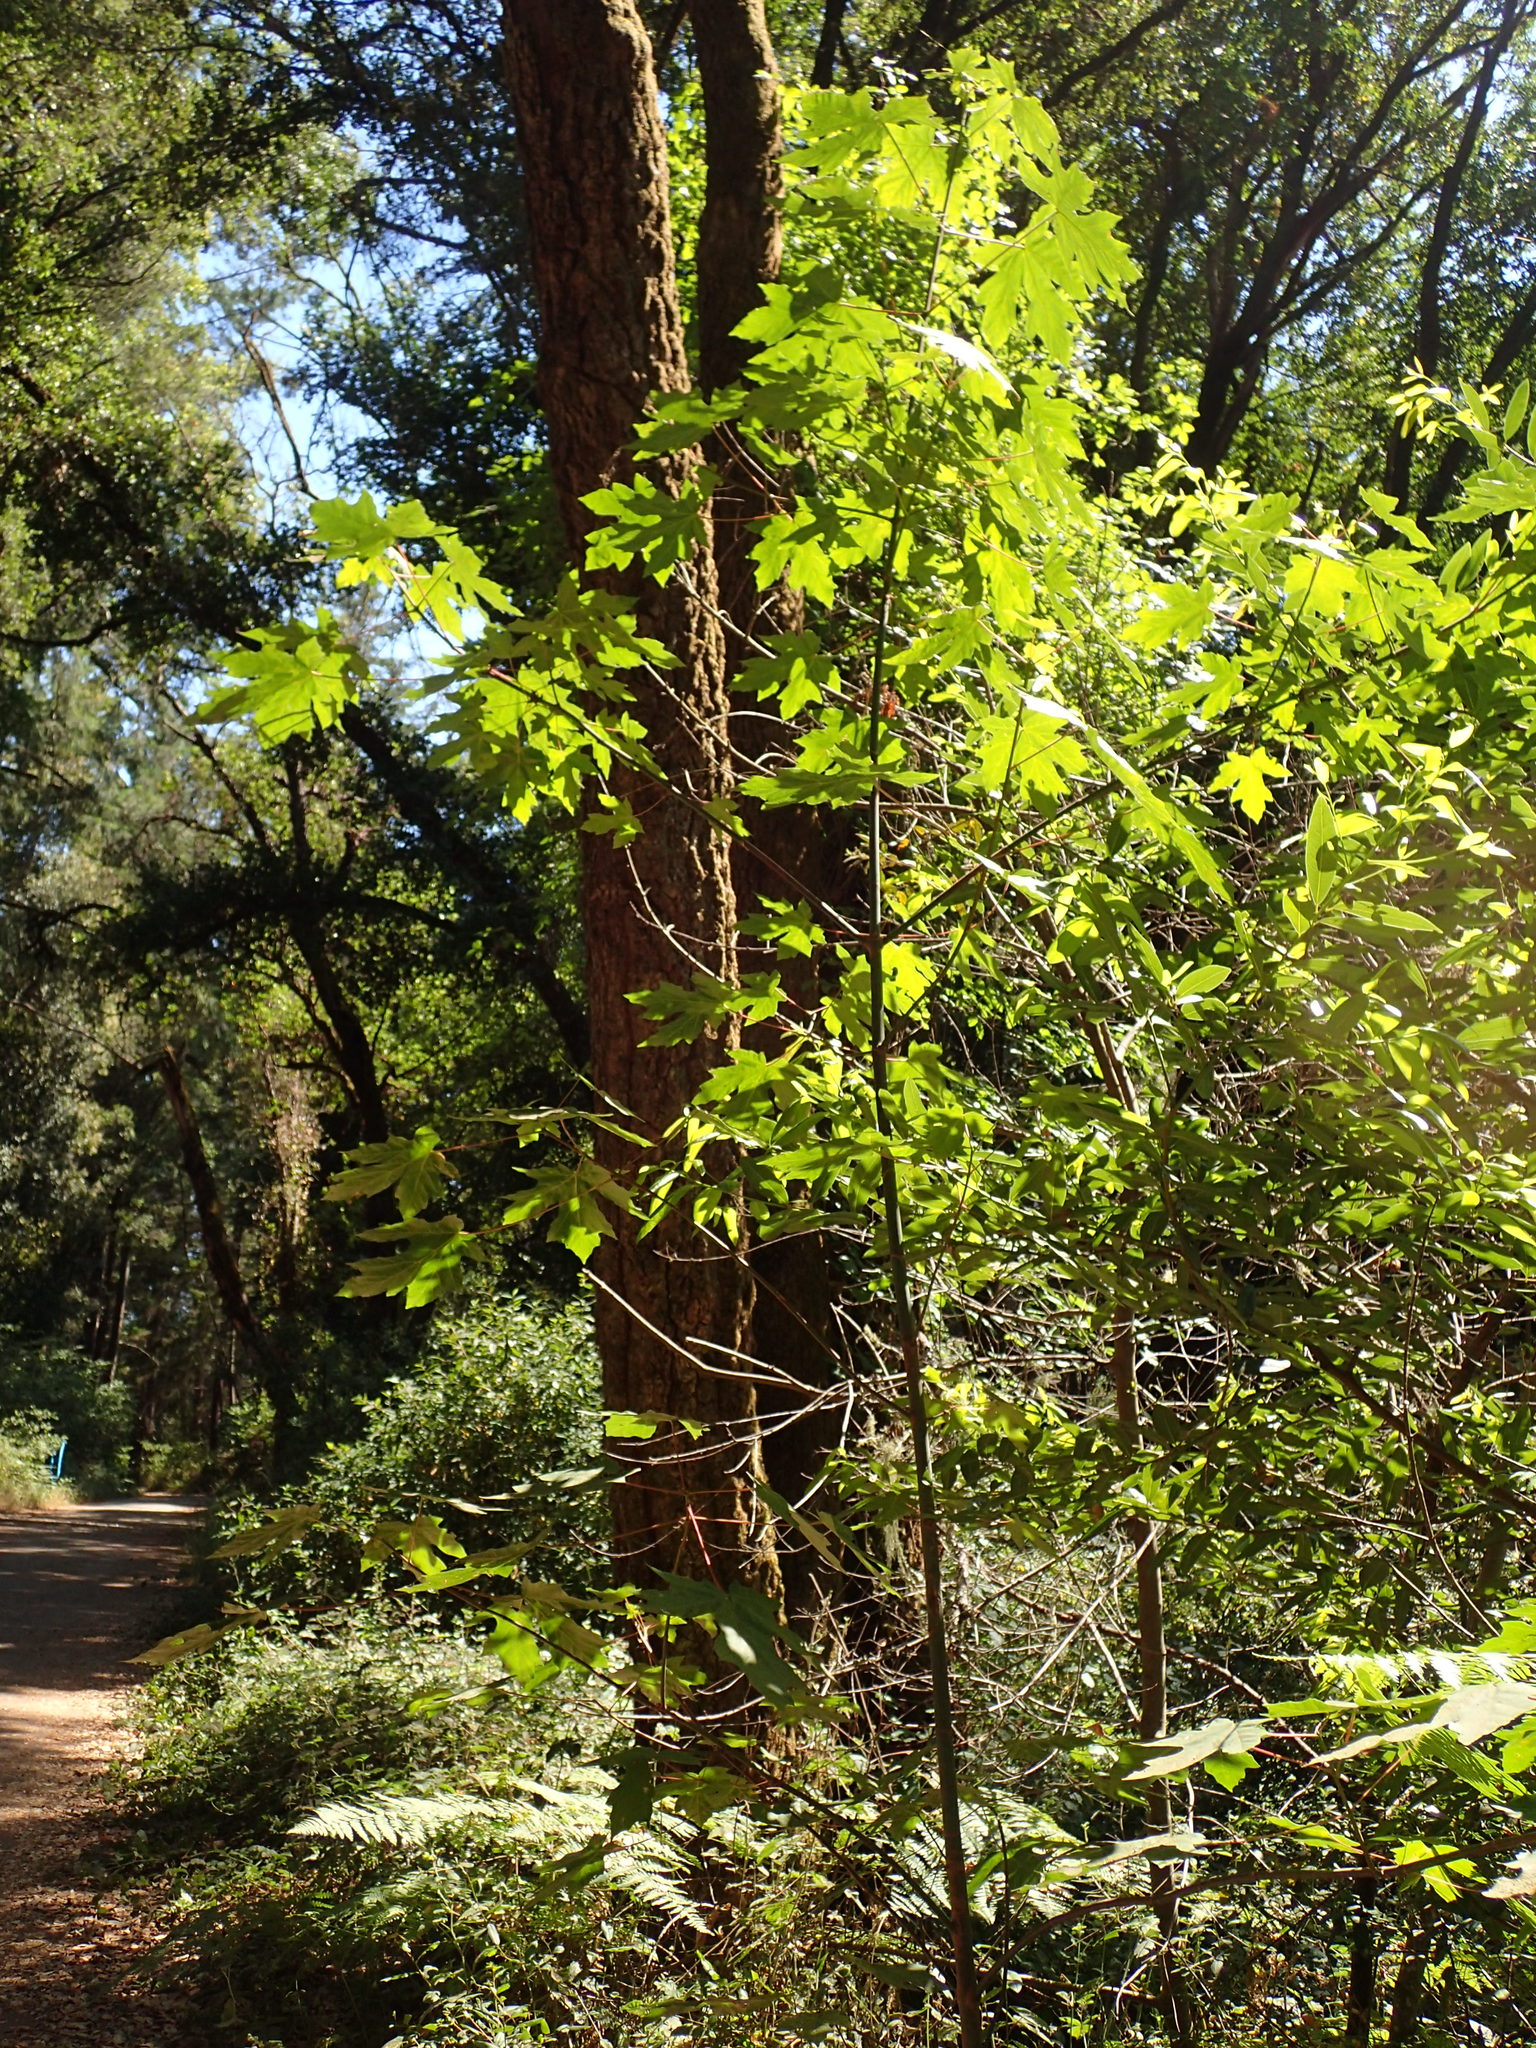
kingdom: Plantae
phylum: Tracheophyta
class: Magnoliopsida
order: Sapindales
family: Sapindaceae
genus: Acer
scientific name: Acer macrophyllum
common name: Oregon maple
